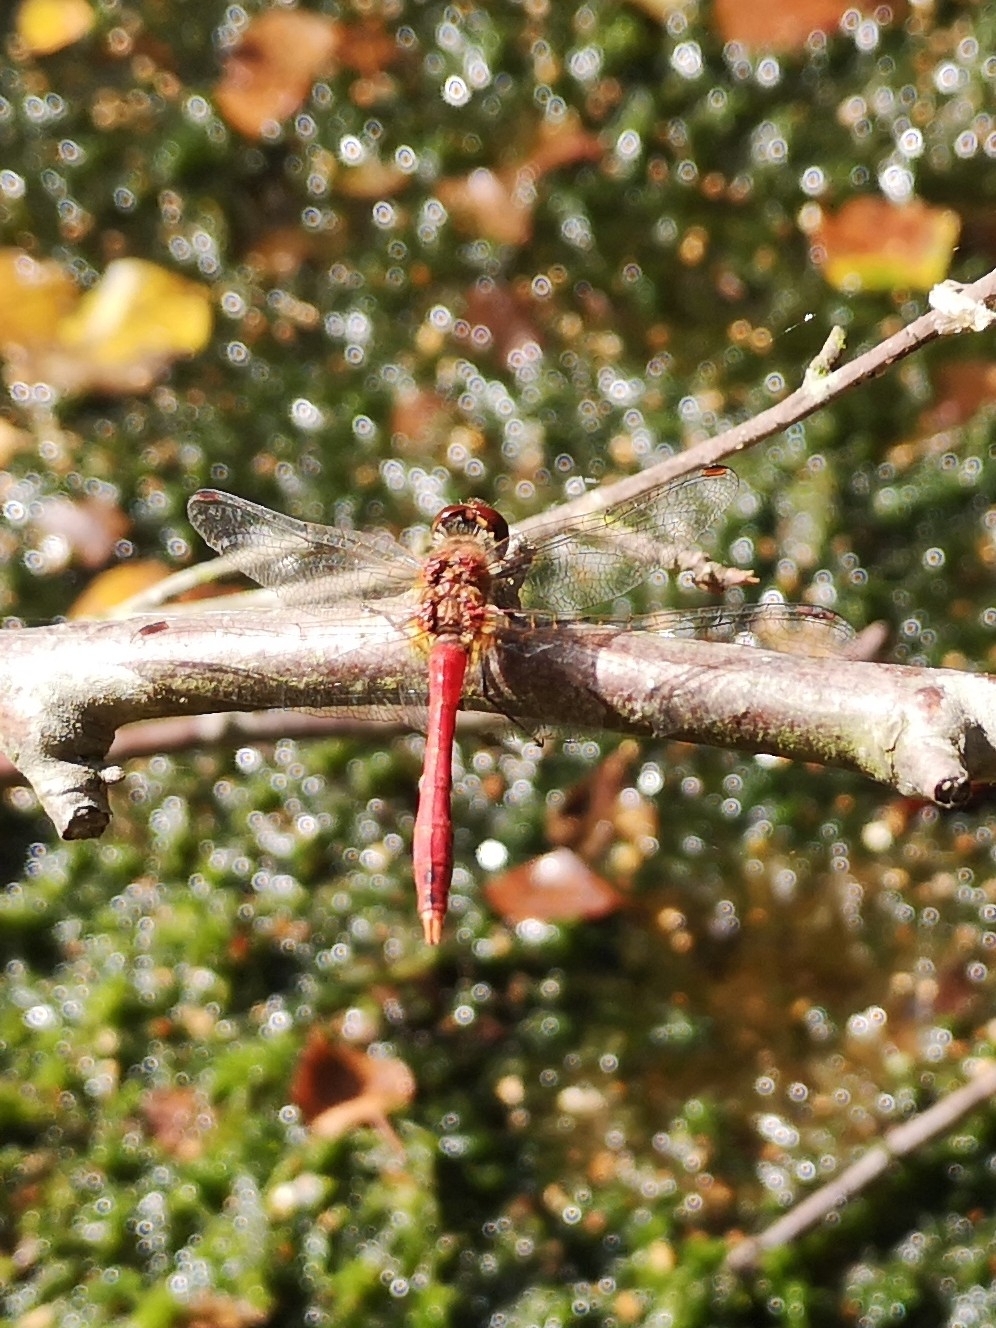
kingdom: Animalia
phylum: Arthropoda
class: Insecta
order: Odonata
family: Libellulidae
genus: Sympetrum
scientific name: Sympetrum sanguineum
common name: Ruddy darter
